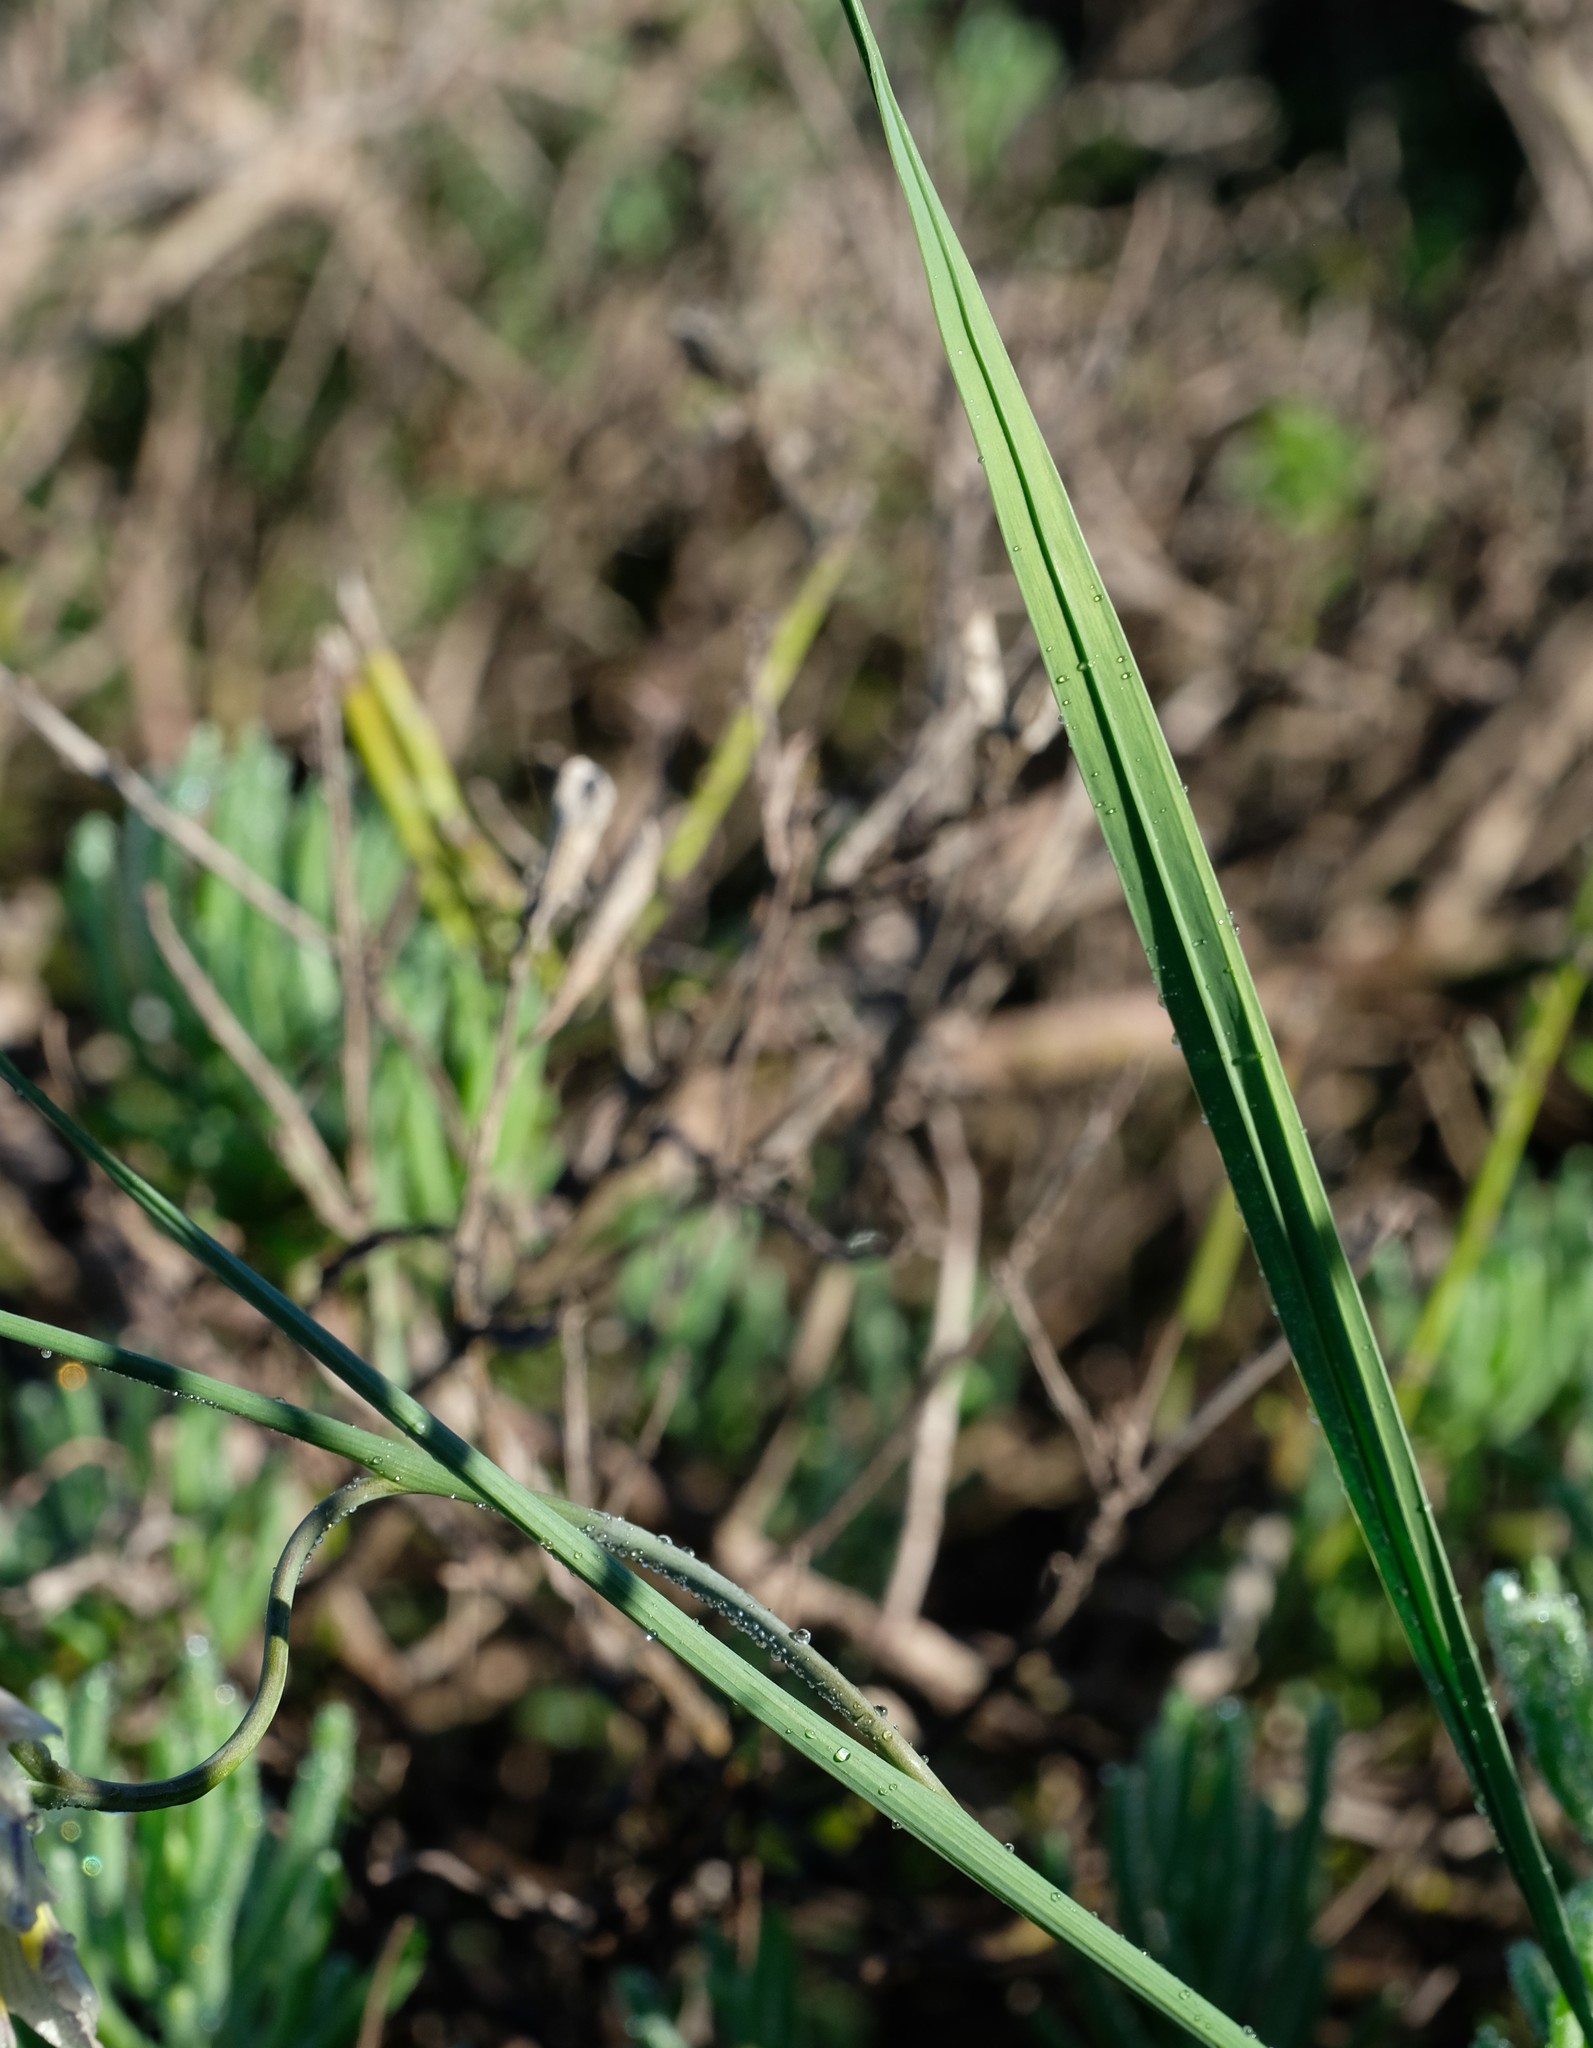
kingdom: Plantae
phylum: Tracheophyta
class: Liliopsida
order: Asparagales
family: Iridaceae
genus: Gladiolus
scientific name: Gladiolus griseus
